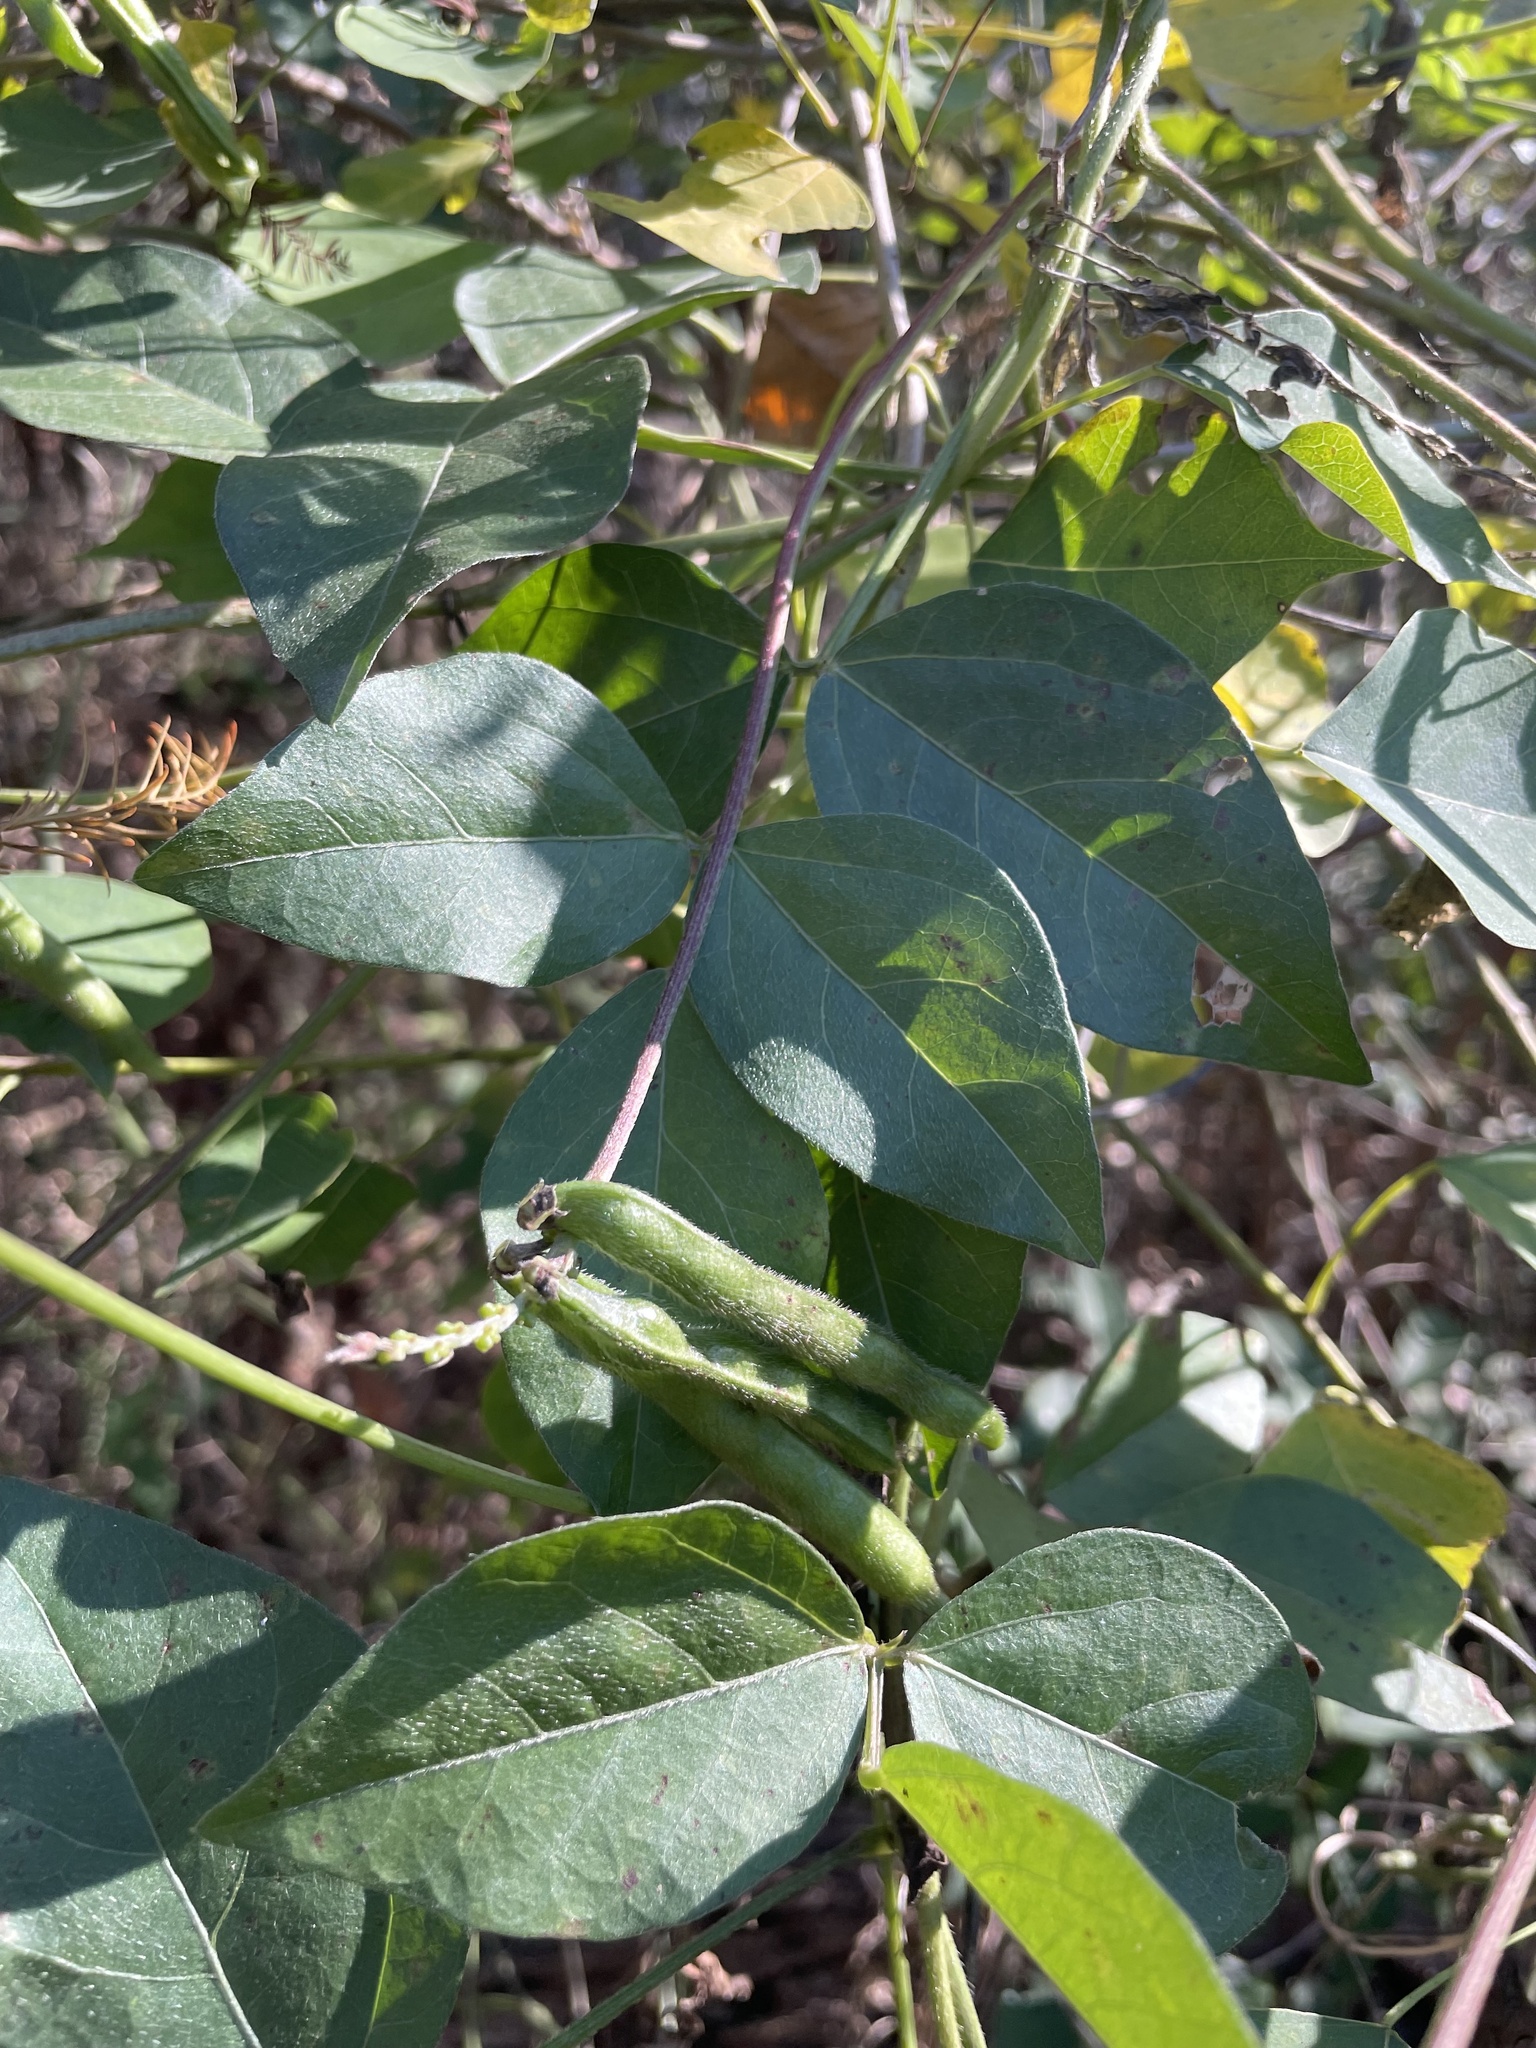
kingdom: Plantae
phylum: Tracheophyta
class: Magnoliopsida
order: Fabales
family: Fabaceae
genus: Vigna
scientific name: Vigna luteola
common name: Hairypod cowpea
